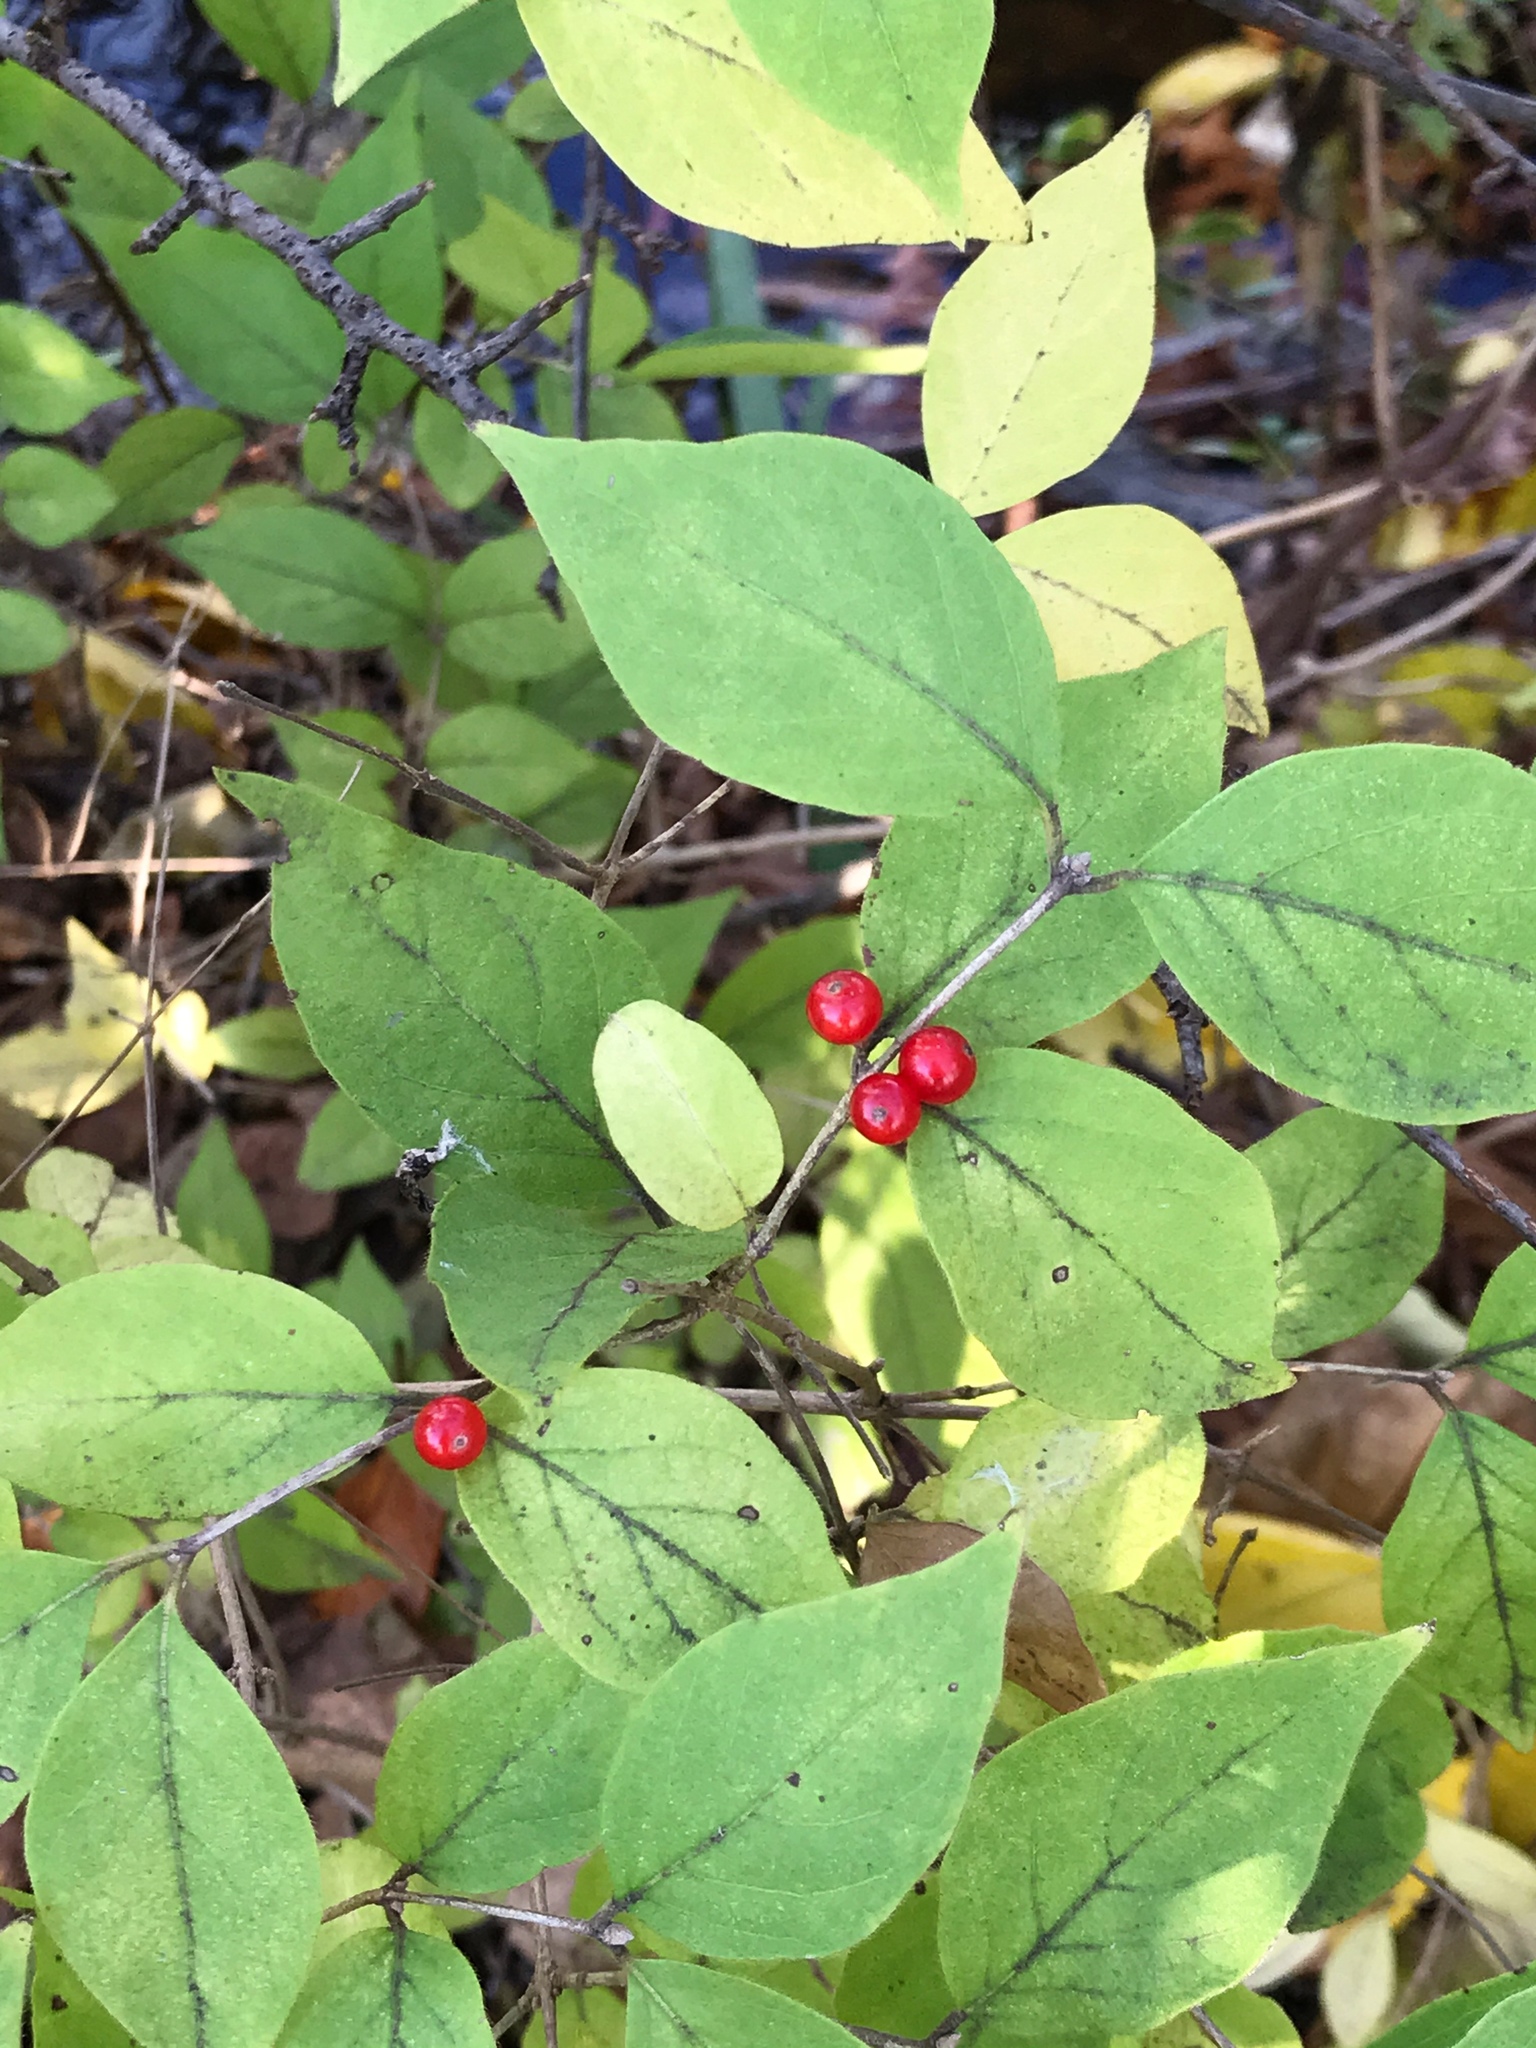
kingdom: Plantae
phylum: Tracheophyta
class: Magnoliopsida
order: Dipsacales
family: Caprifoliaceae
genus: Lonicera
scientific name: Lonicera maackii
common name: Amur honeysuckle
